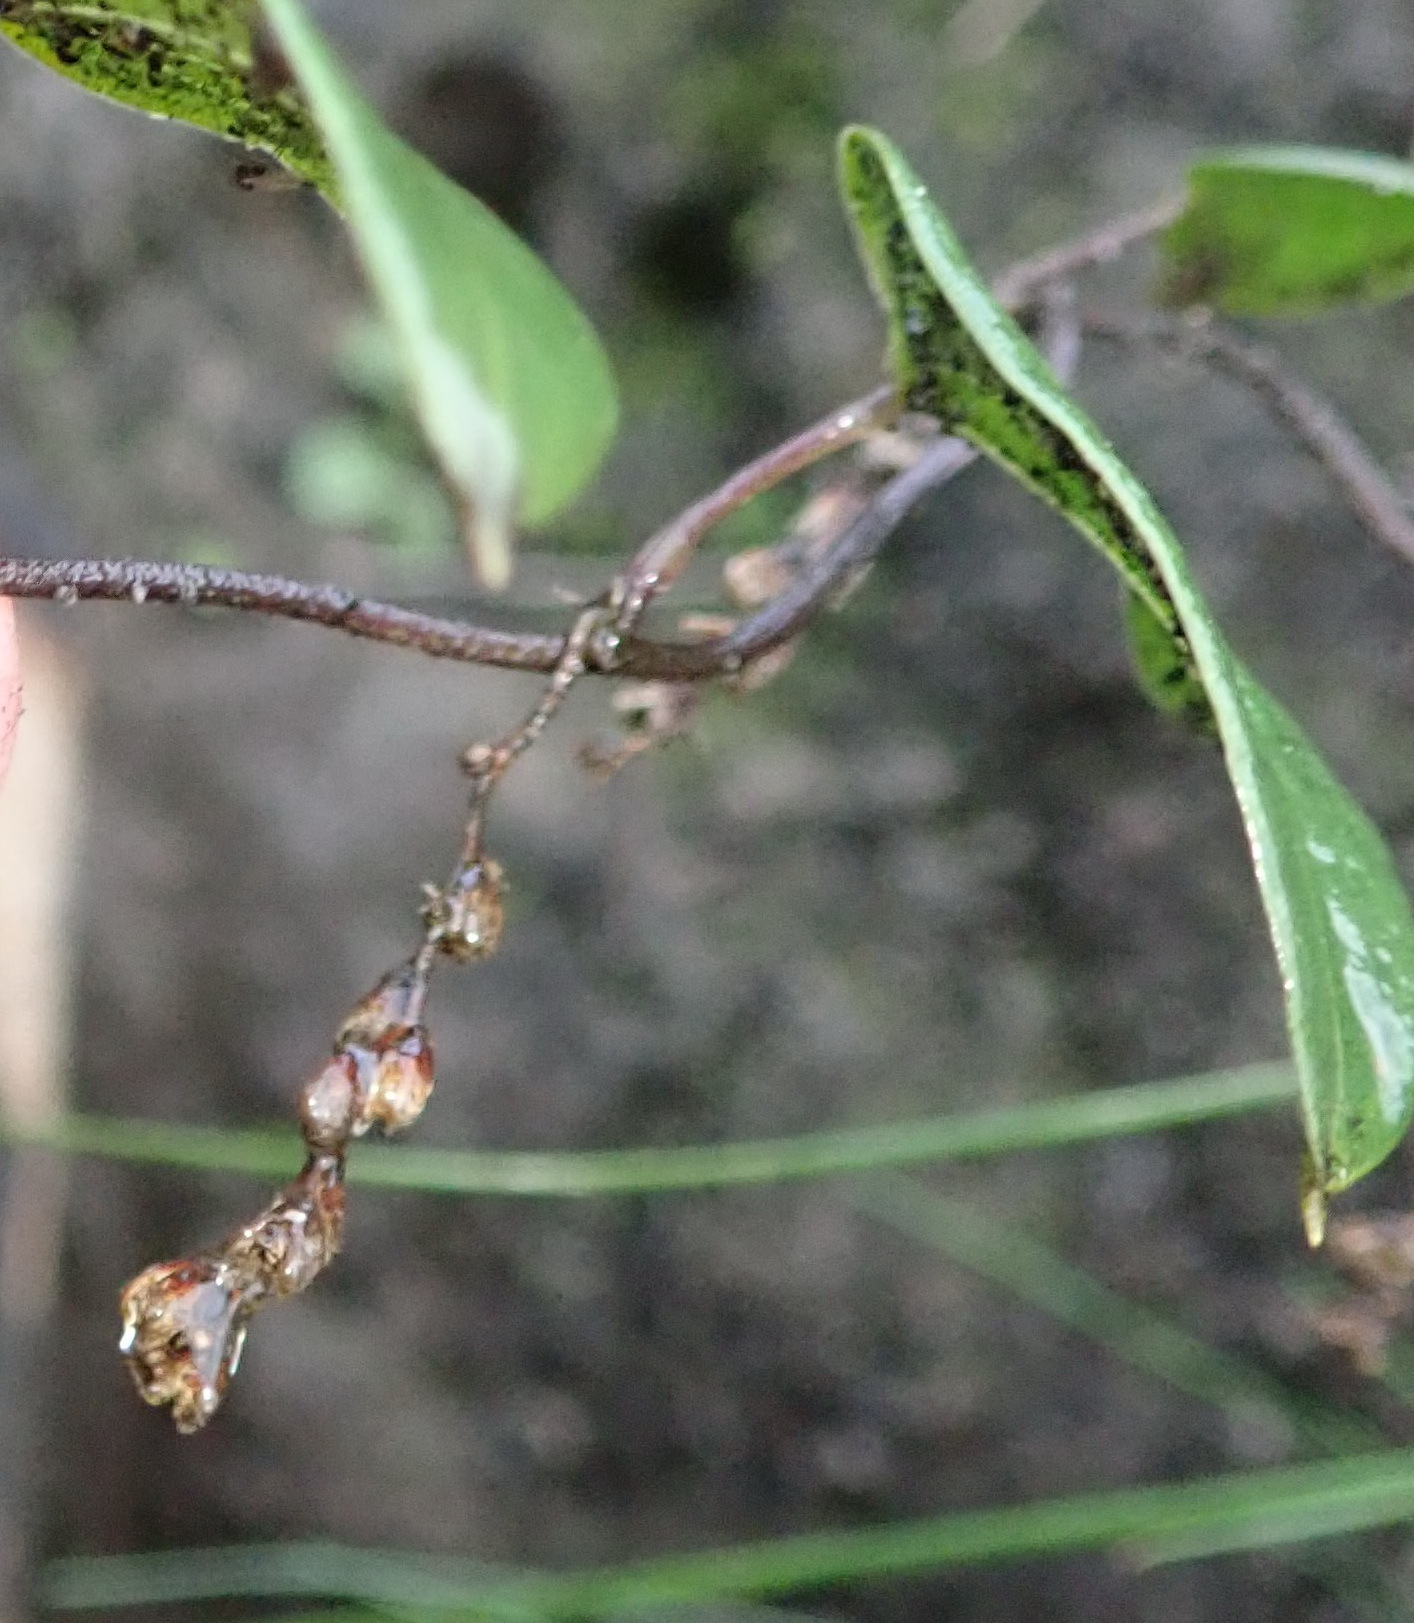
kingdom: Plantae
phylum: Tracheophyta
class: Liliopsida
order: Dioscoreales
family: Dioscoreaceae
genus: Dioscorea
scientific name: Dioscorea burchellii
